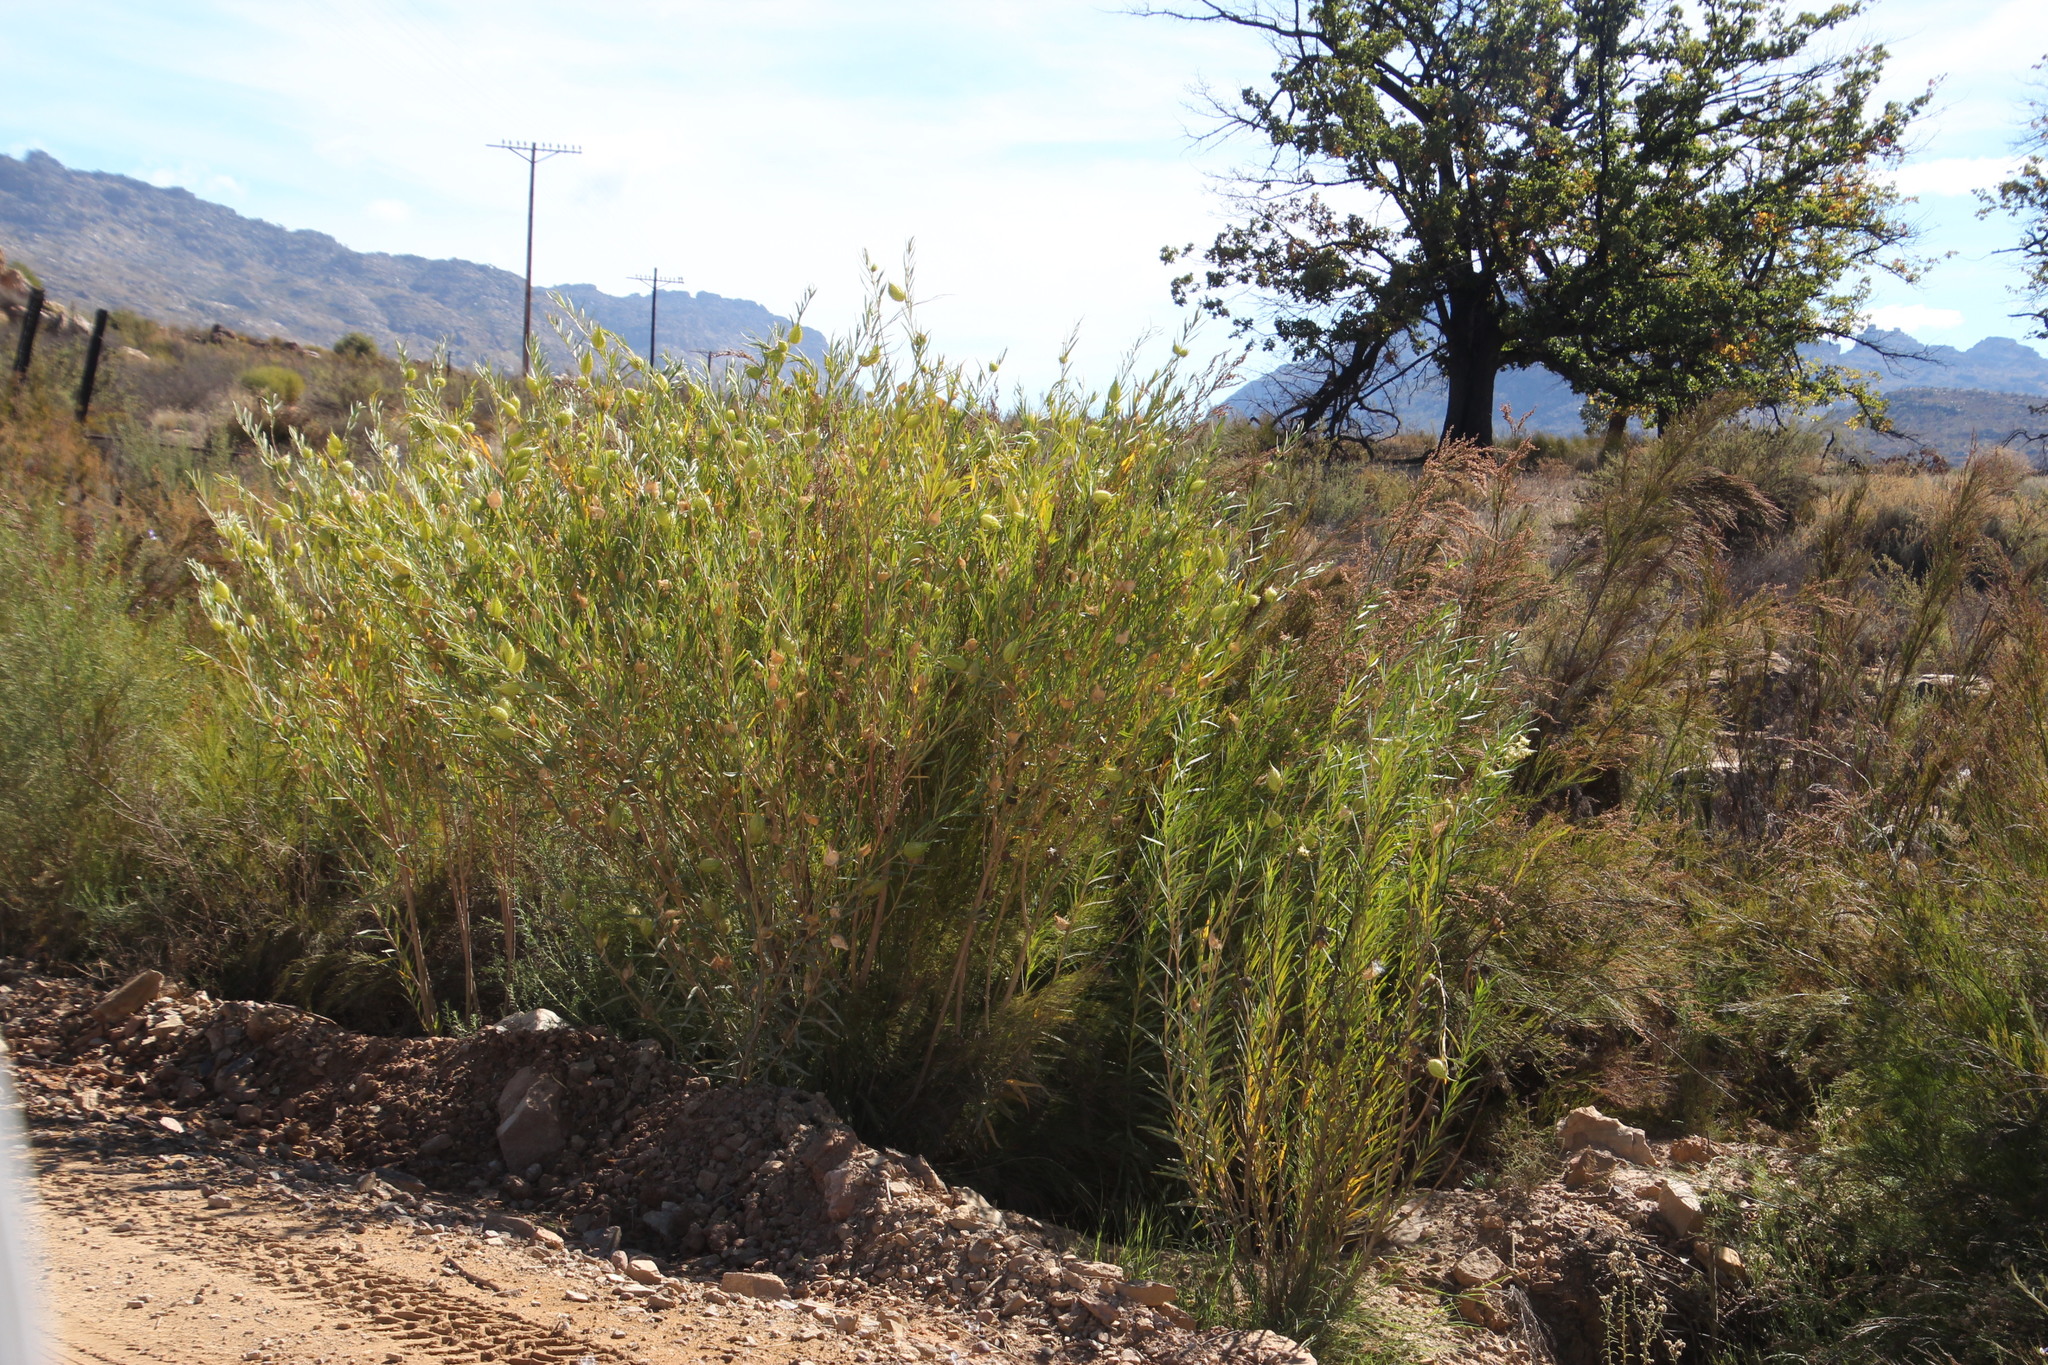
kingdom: Plantae
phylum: Tracheophyta
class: Magnoliopsida
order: Gentianales
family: Apocynaceae
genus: Gomphocarpus
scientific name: Gomphocarpus fruticosus
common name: Milkweed
